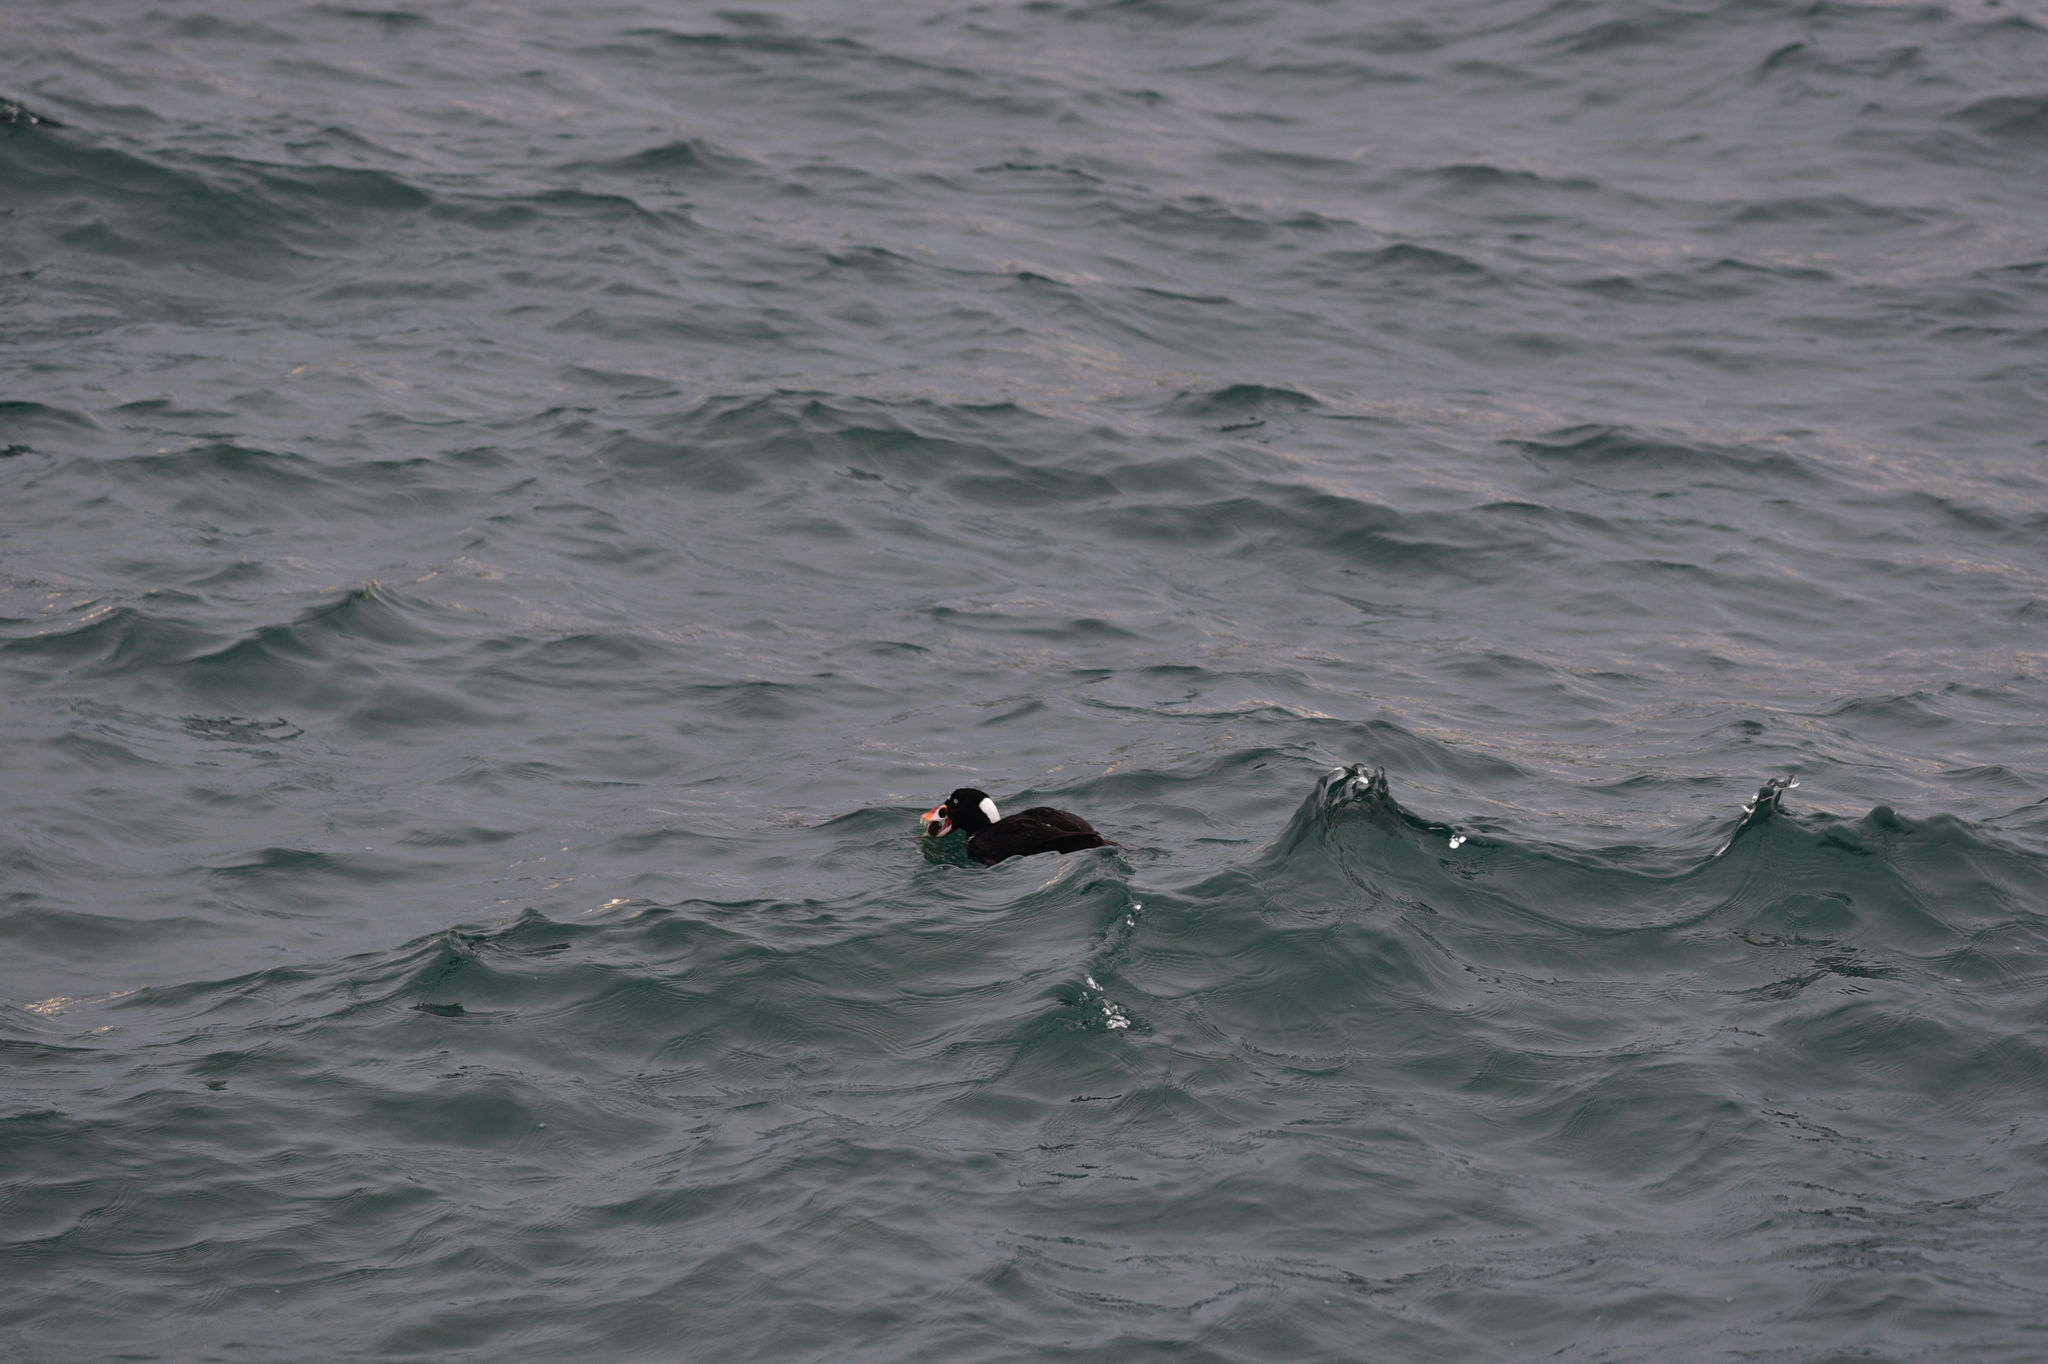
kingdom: Animalia
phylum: Chordata
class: Aves
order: Anseriformes
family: Anatidae
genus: Melanitta
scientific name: Melanitta perspicillata
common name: Surf scoter
